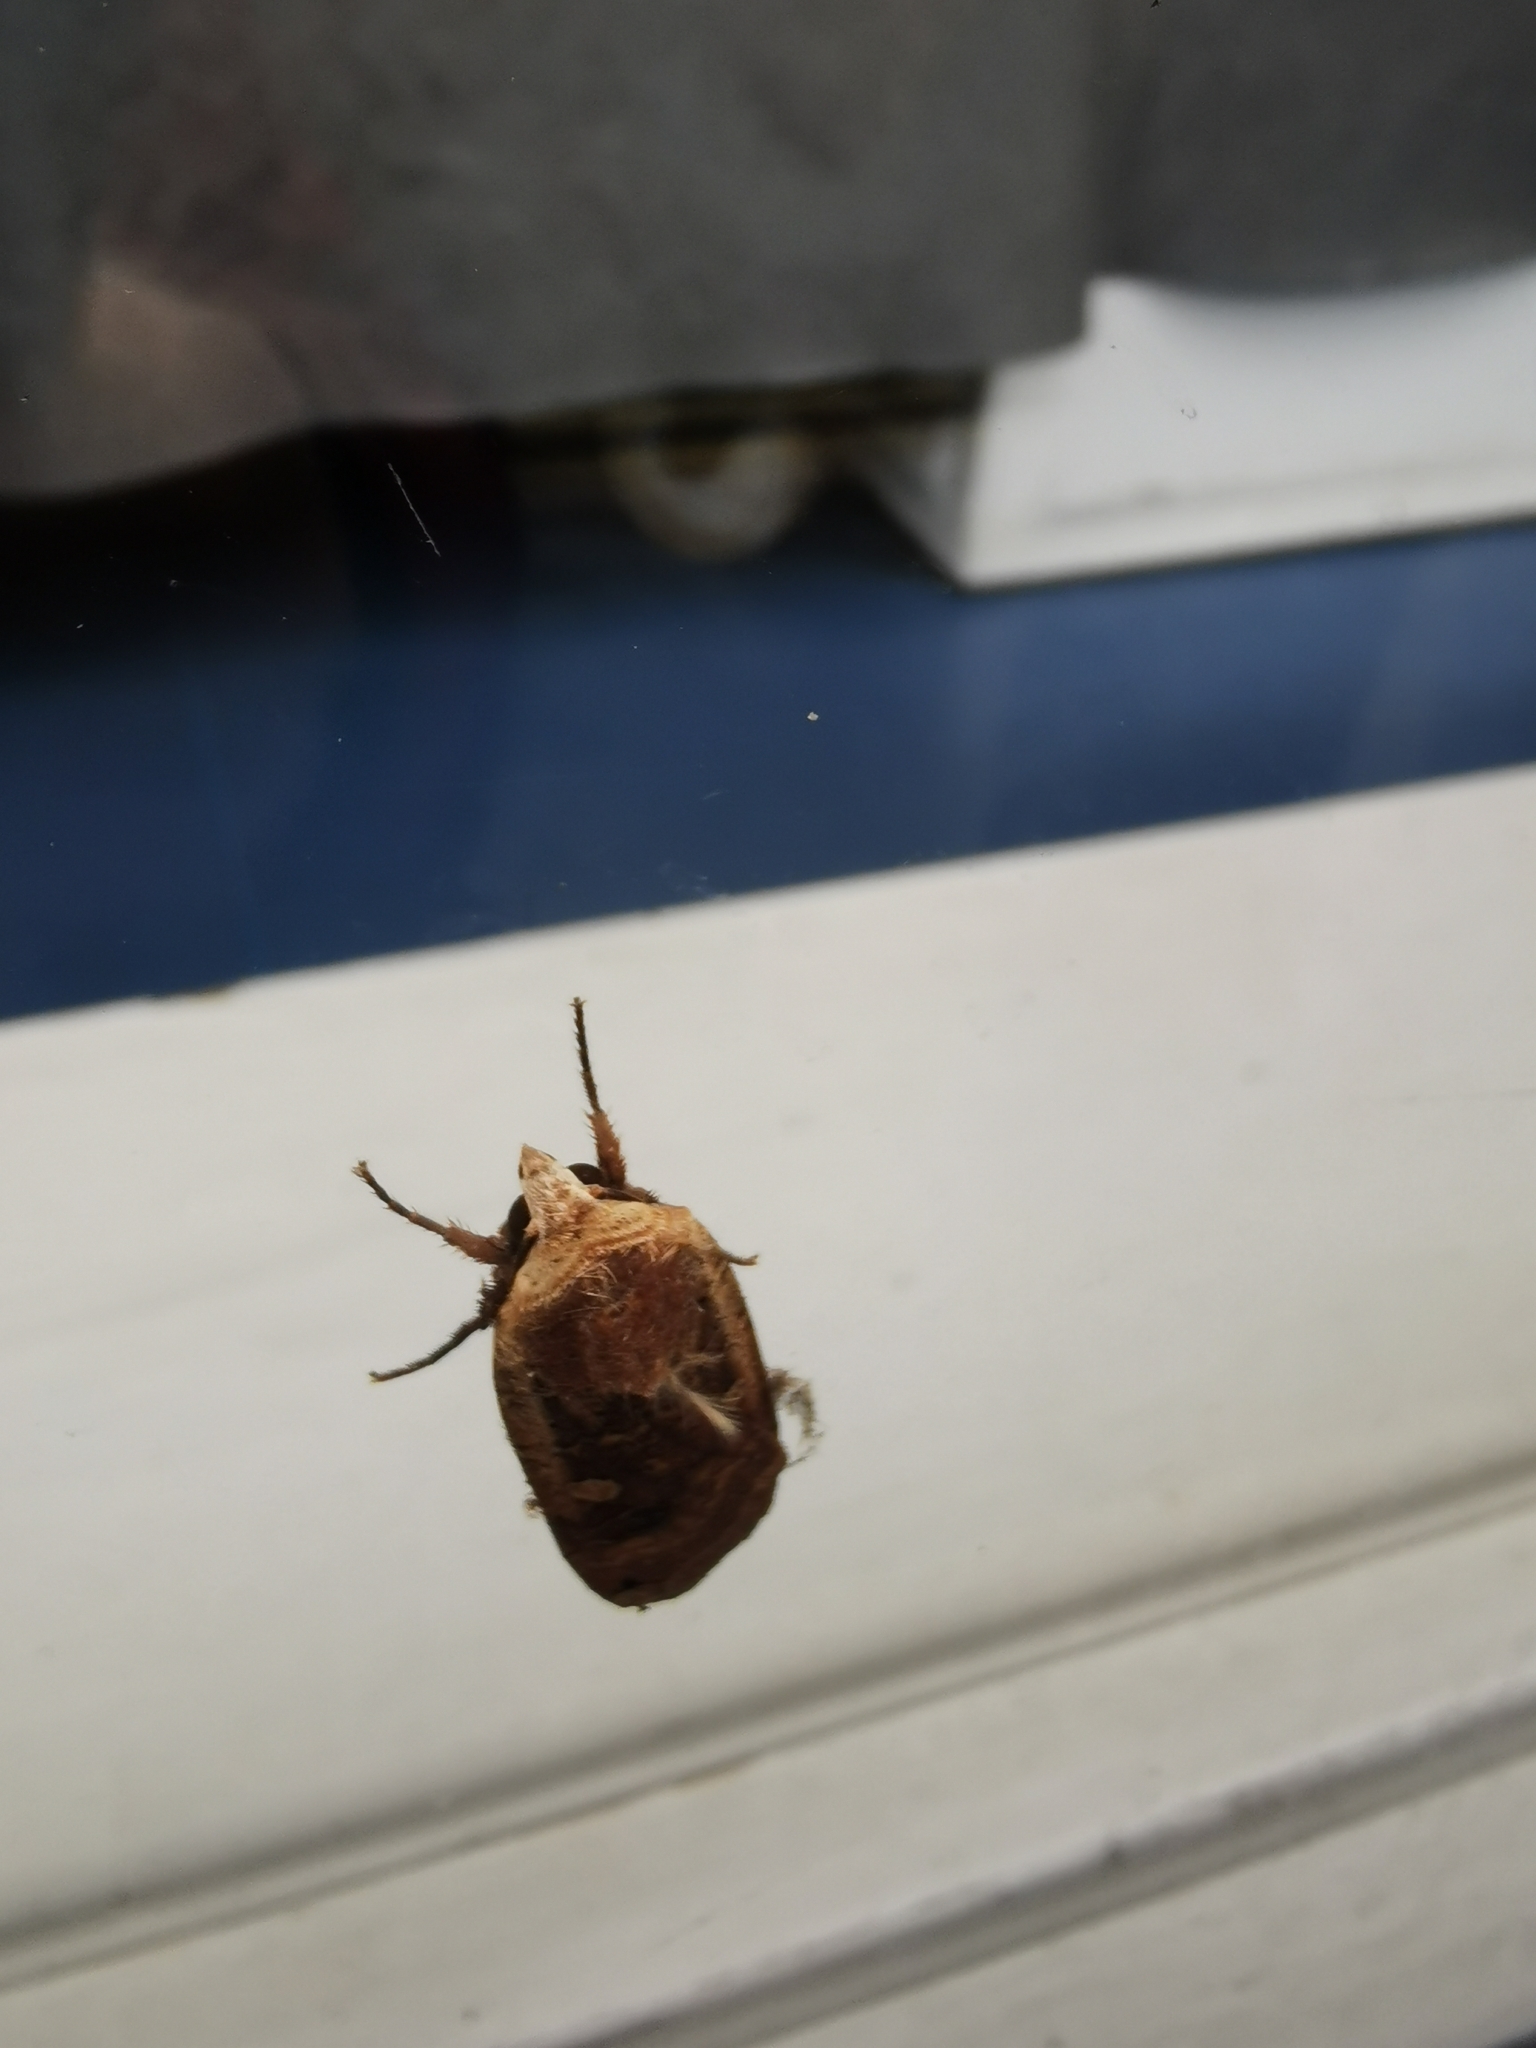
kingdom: Animalia
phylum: Arthropoda
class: Insecta
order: Lepidoptera
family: Noctuidae
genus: Noctua
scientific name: Noctua pronuba
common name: Large yellow underwing
